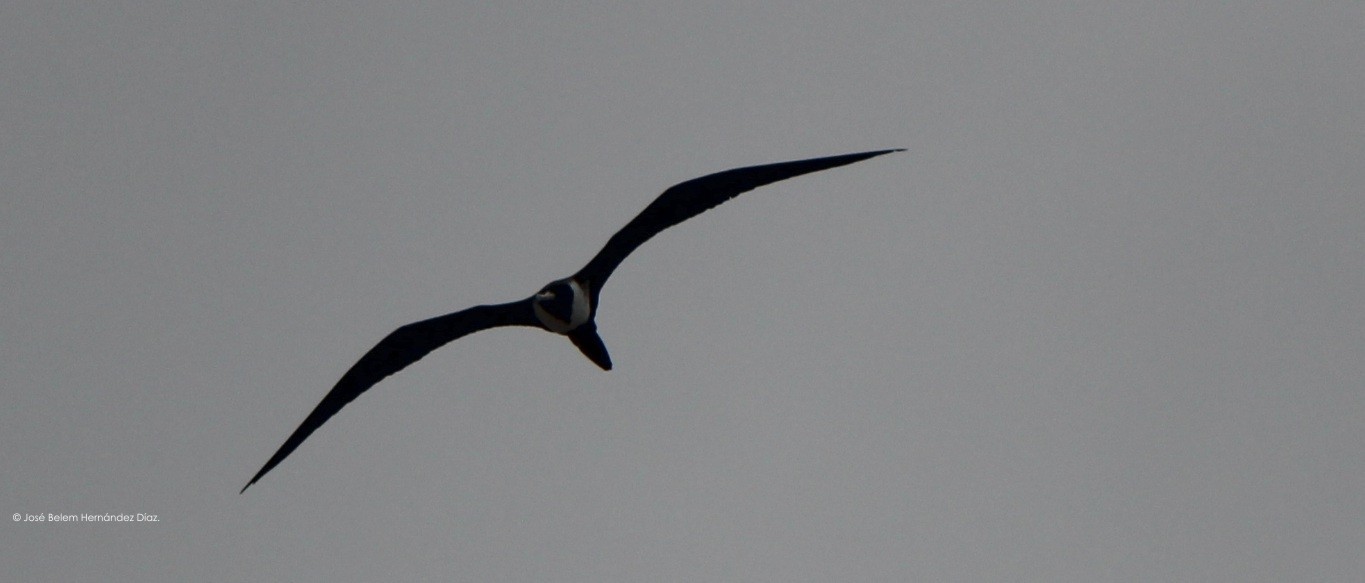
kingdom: Animalia
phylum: Chordata
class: Aves
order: Suliformes
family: Fregatidae
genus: Fregata
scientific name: Fregata magnificens
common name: Magnificent frigatebird
